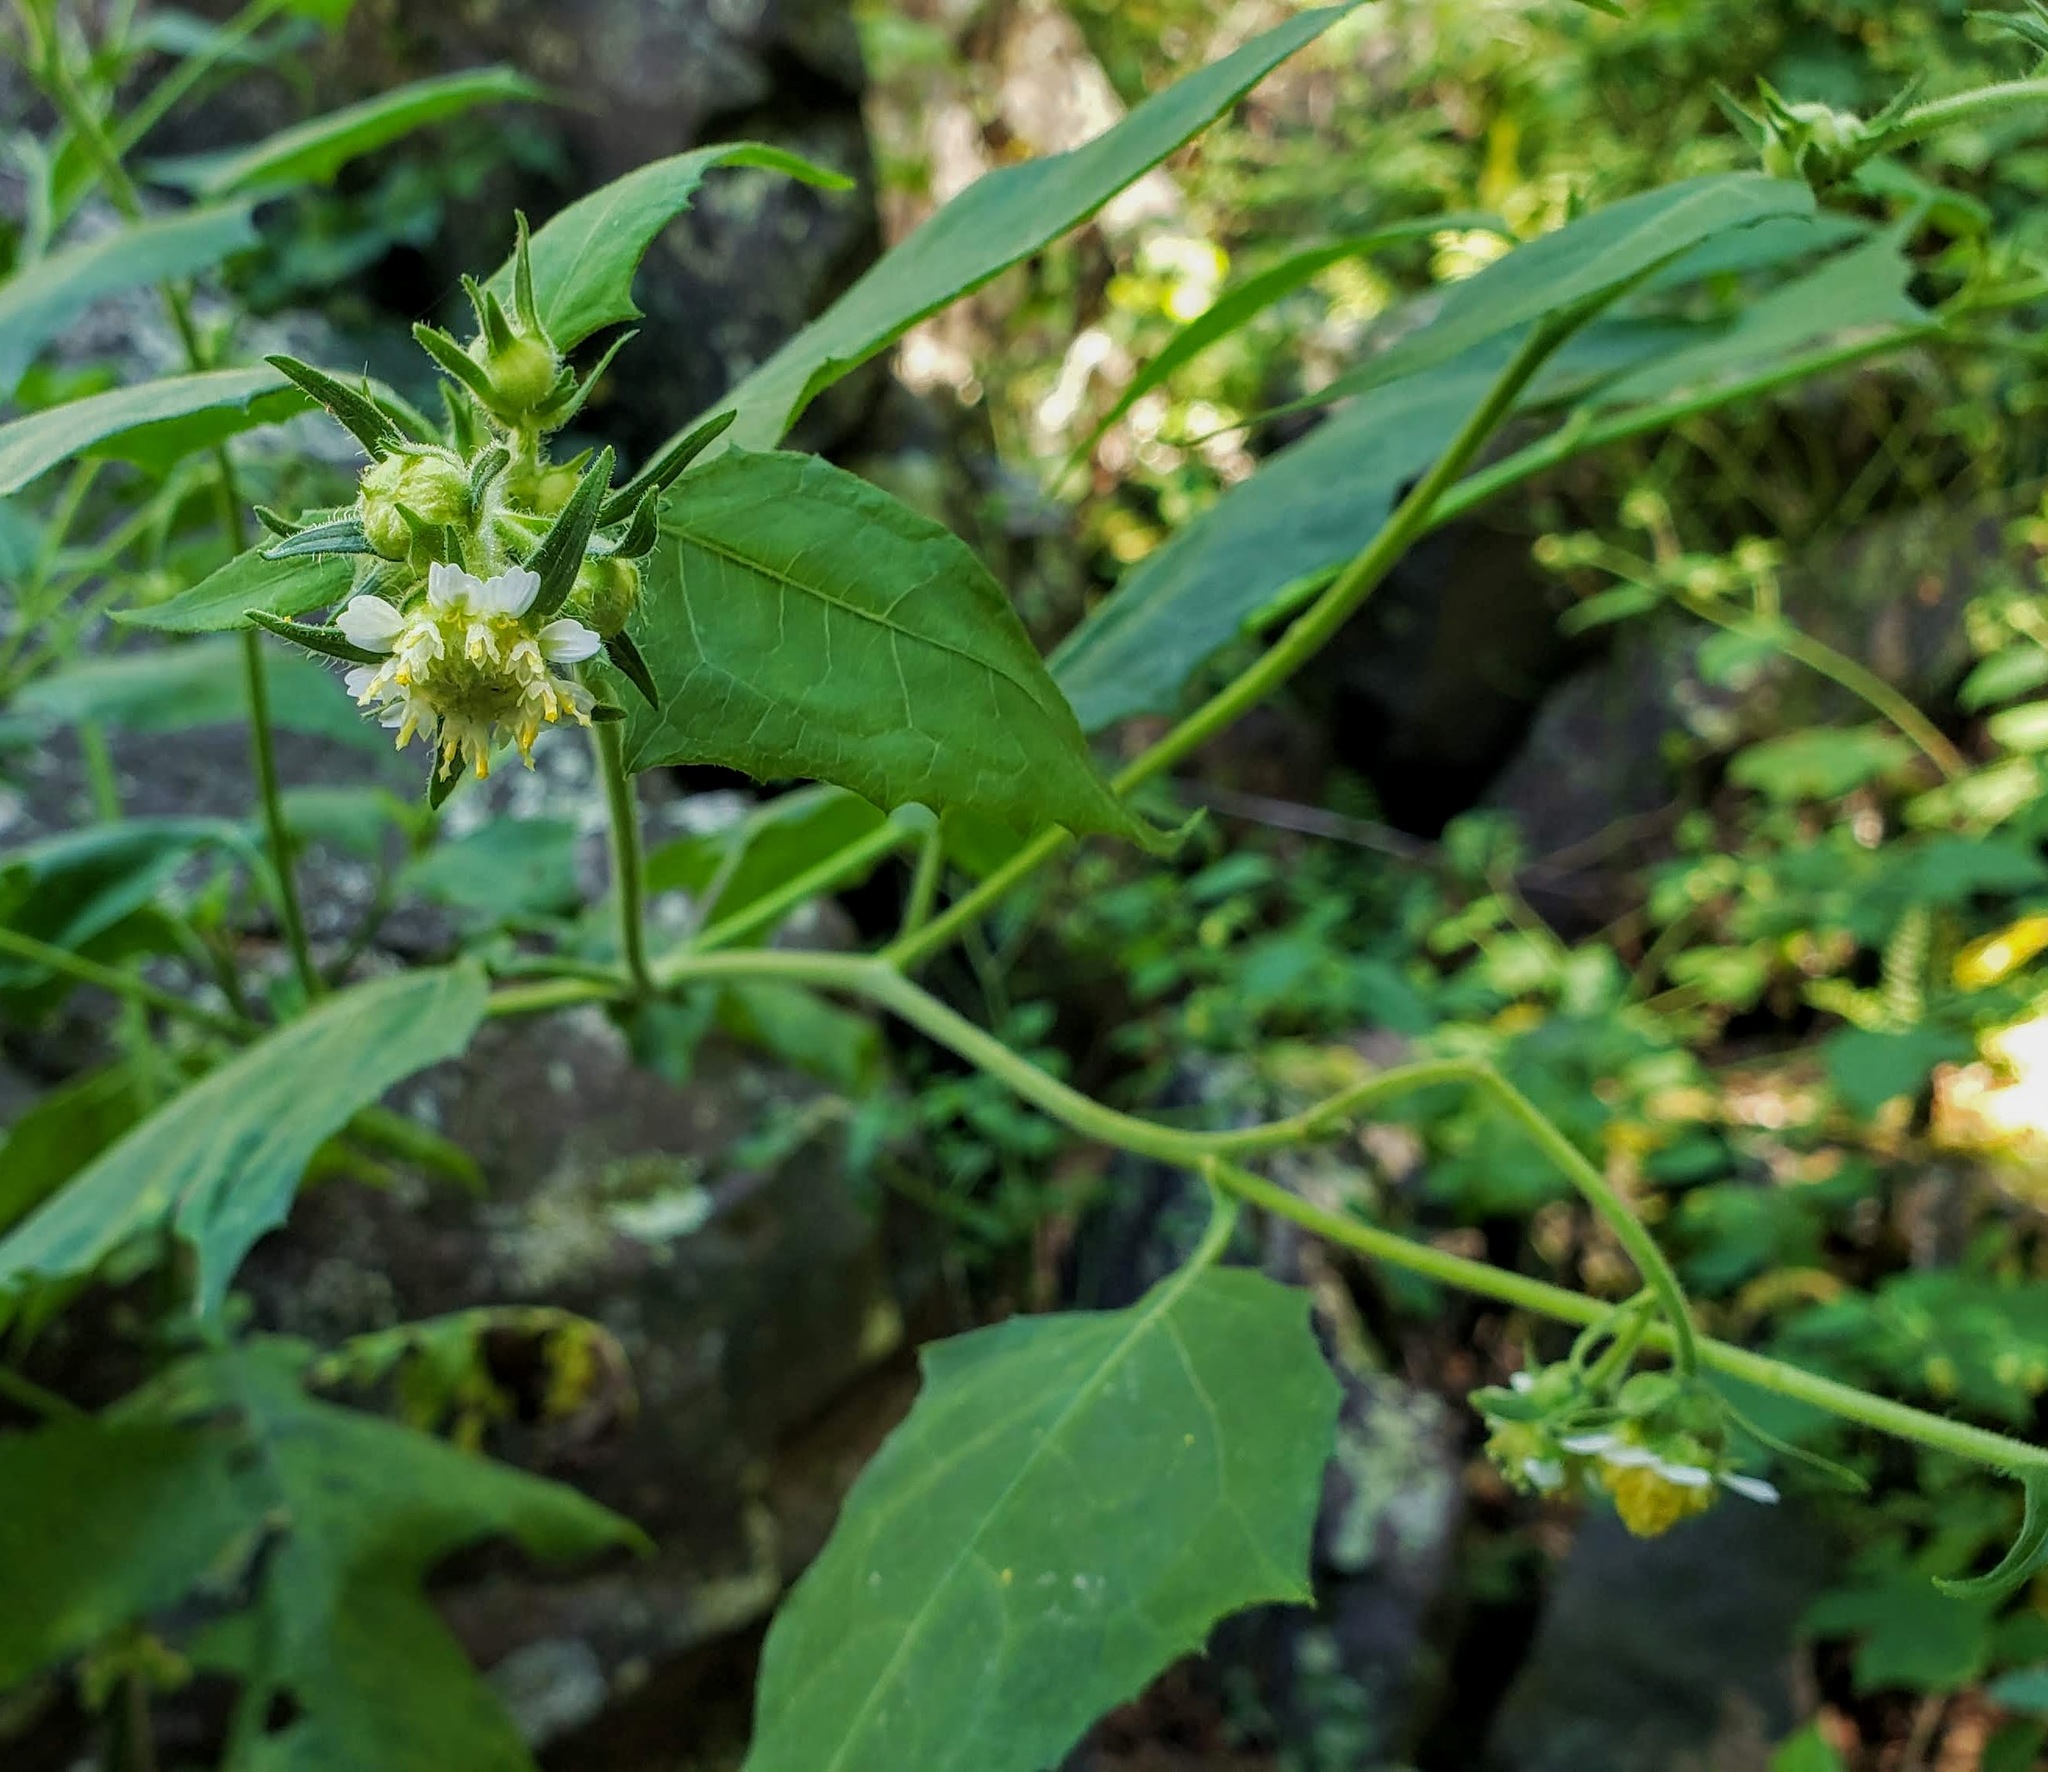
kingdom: Plantae
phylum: Tracheophyta
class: Magnoliopsida
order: Asterales
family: Asteraceae
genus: Polymnia
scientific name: Polymnia canadensis
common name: Pale-flowered leafcup
